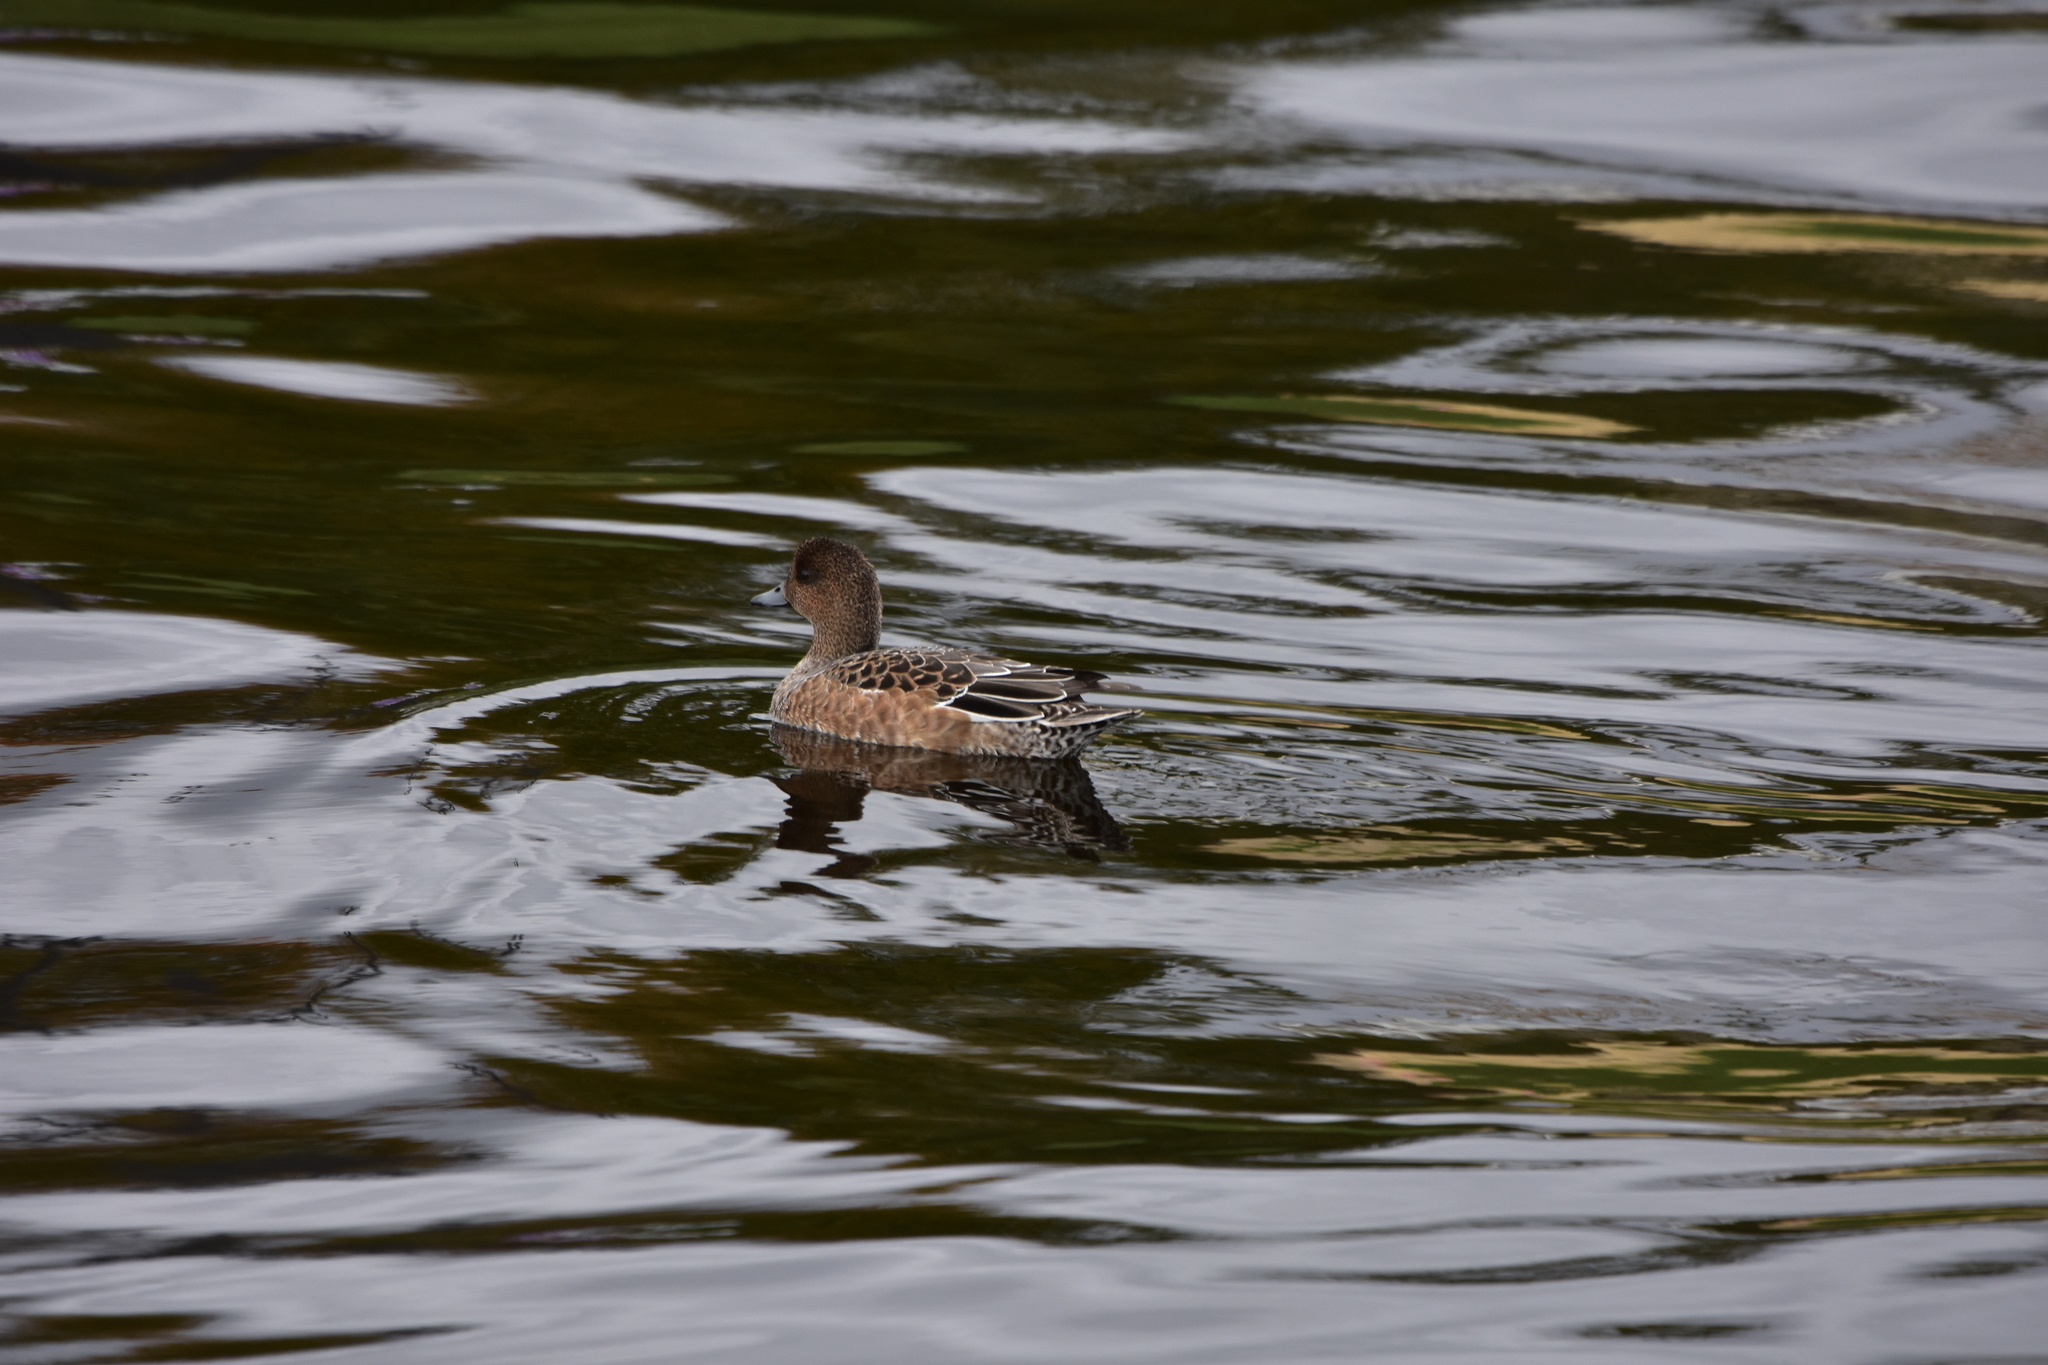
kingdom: Animalia
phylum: Chordata
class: Aves
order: Anseriformes
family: Anatidae
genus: Mareca
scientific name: Mareca penelope
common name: Eurasian wigeon
